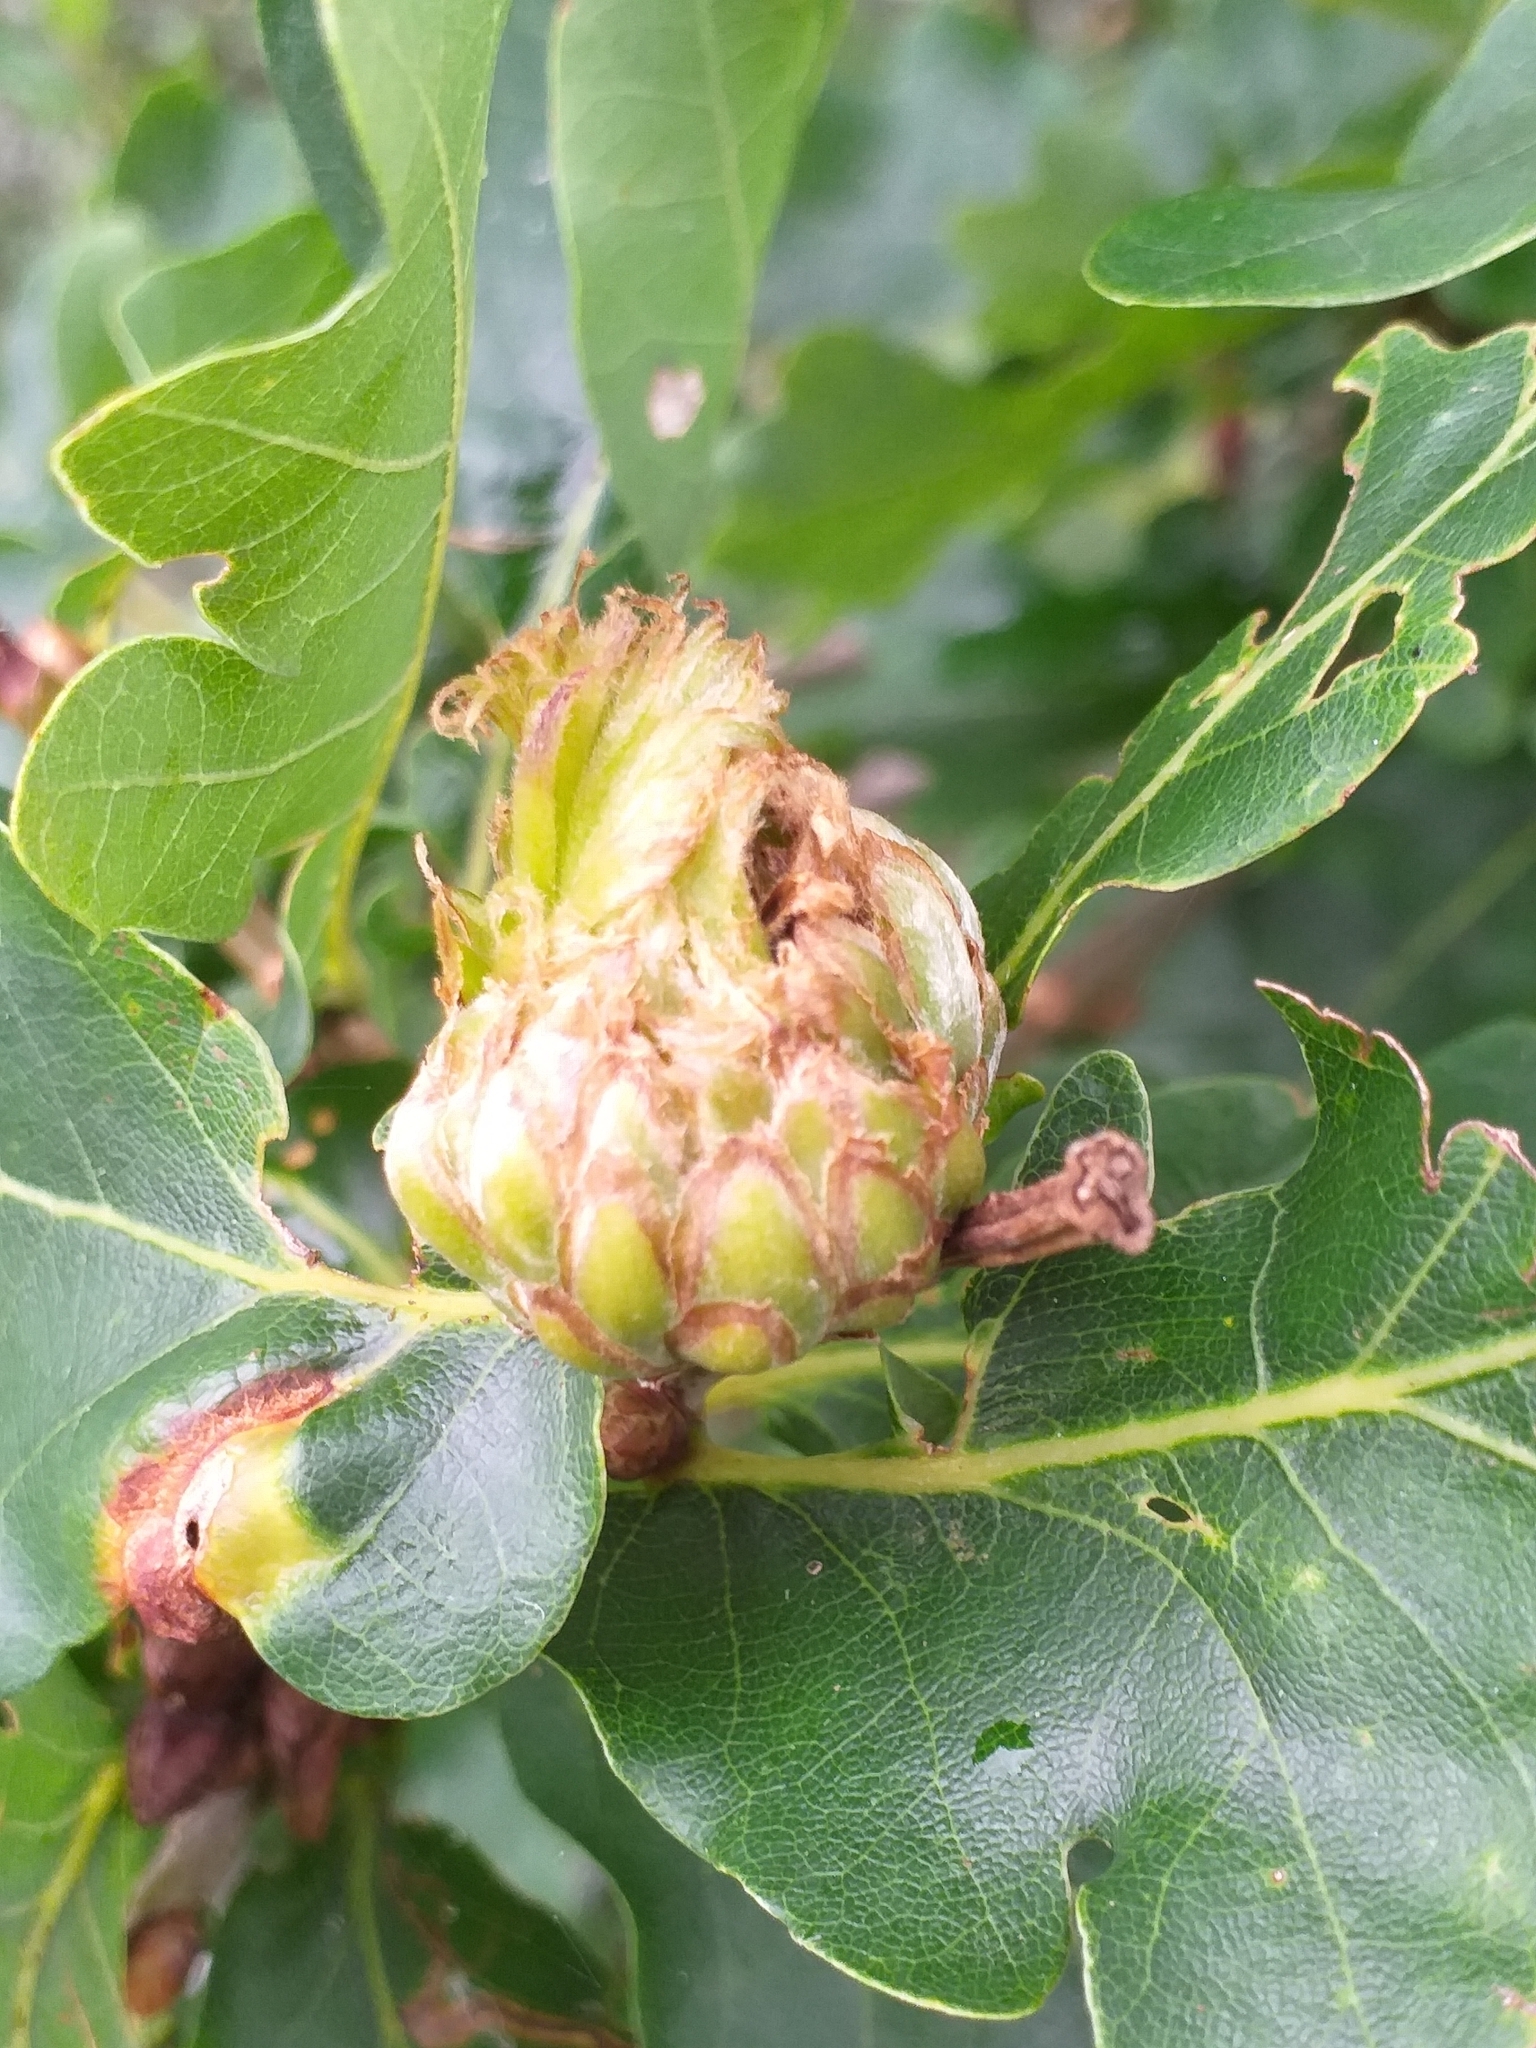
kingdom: Animalia
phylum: Arthropoda
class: Insecta
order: Hymenoptera
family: Cynipidae
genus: Andricus
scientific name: Andricus foecundatrix
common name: Artichoke gall
